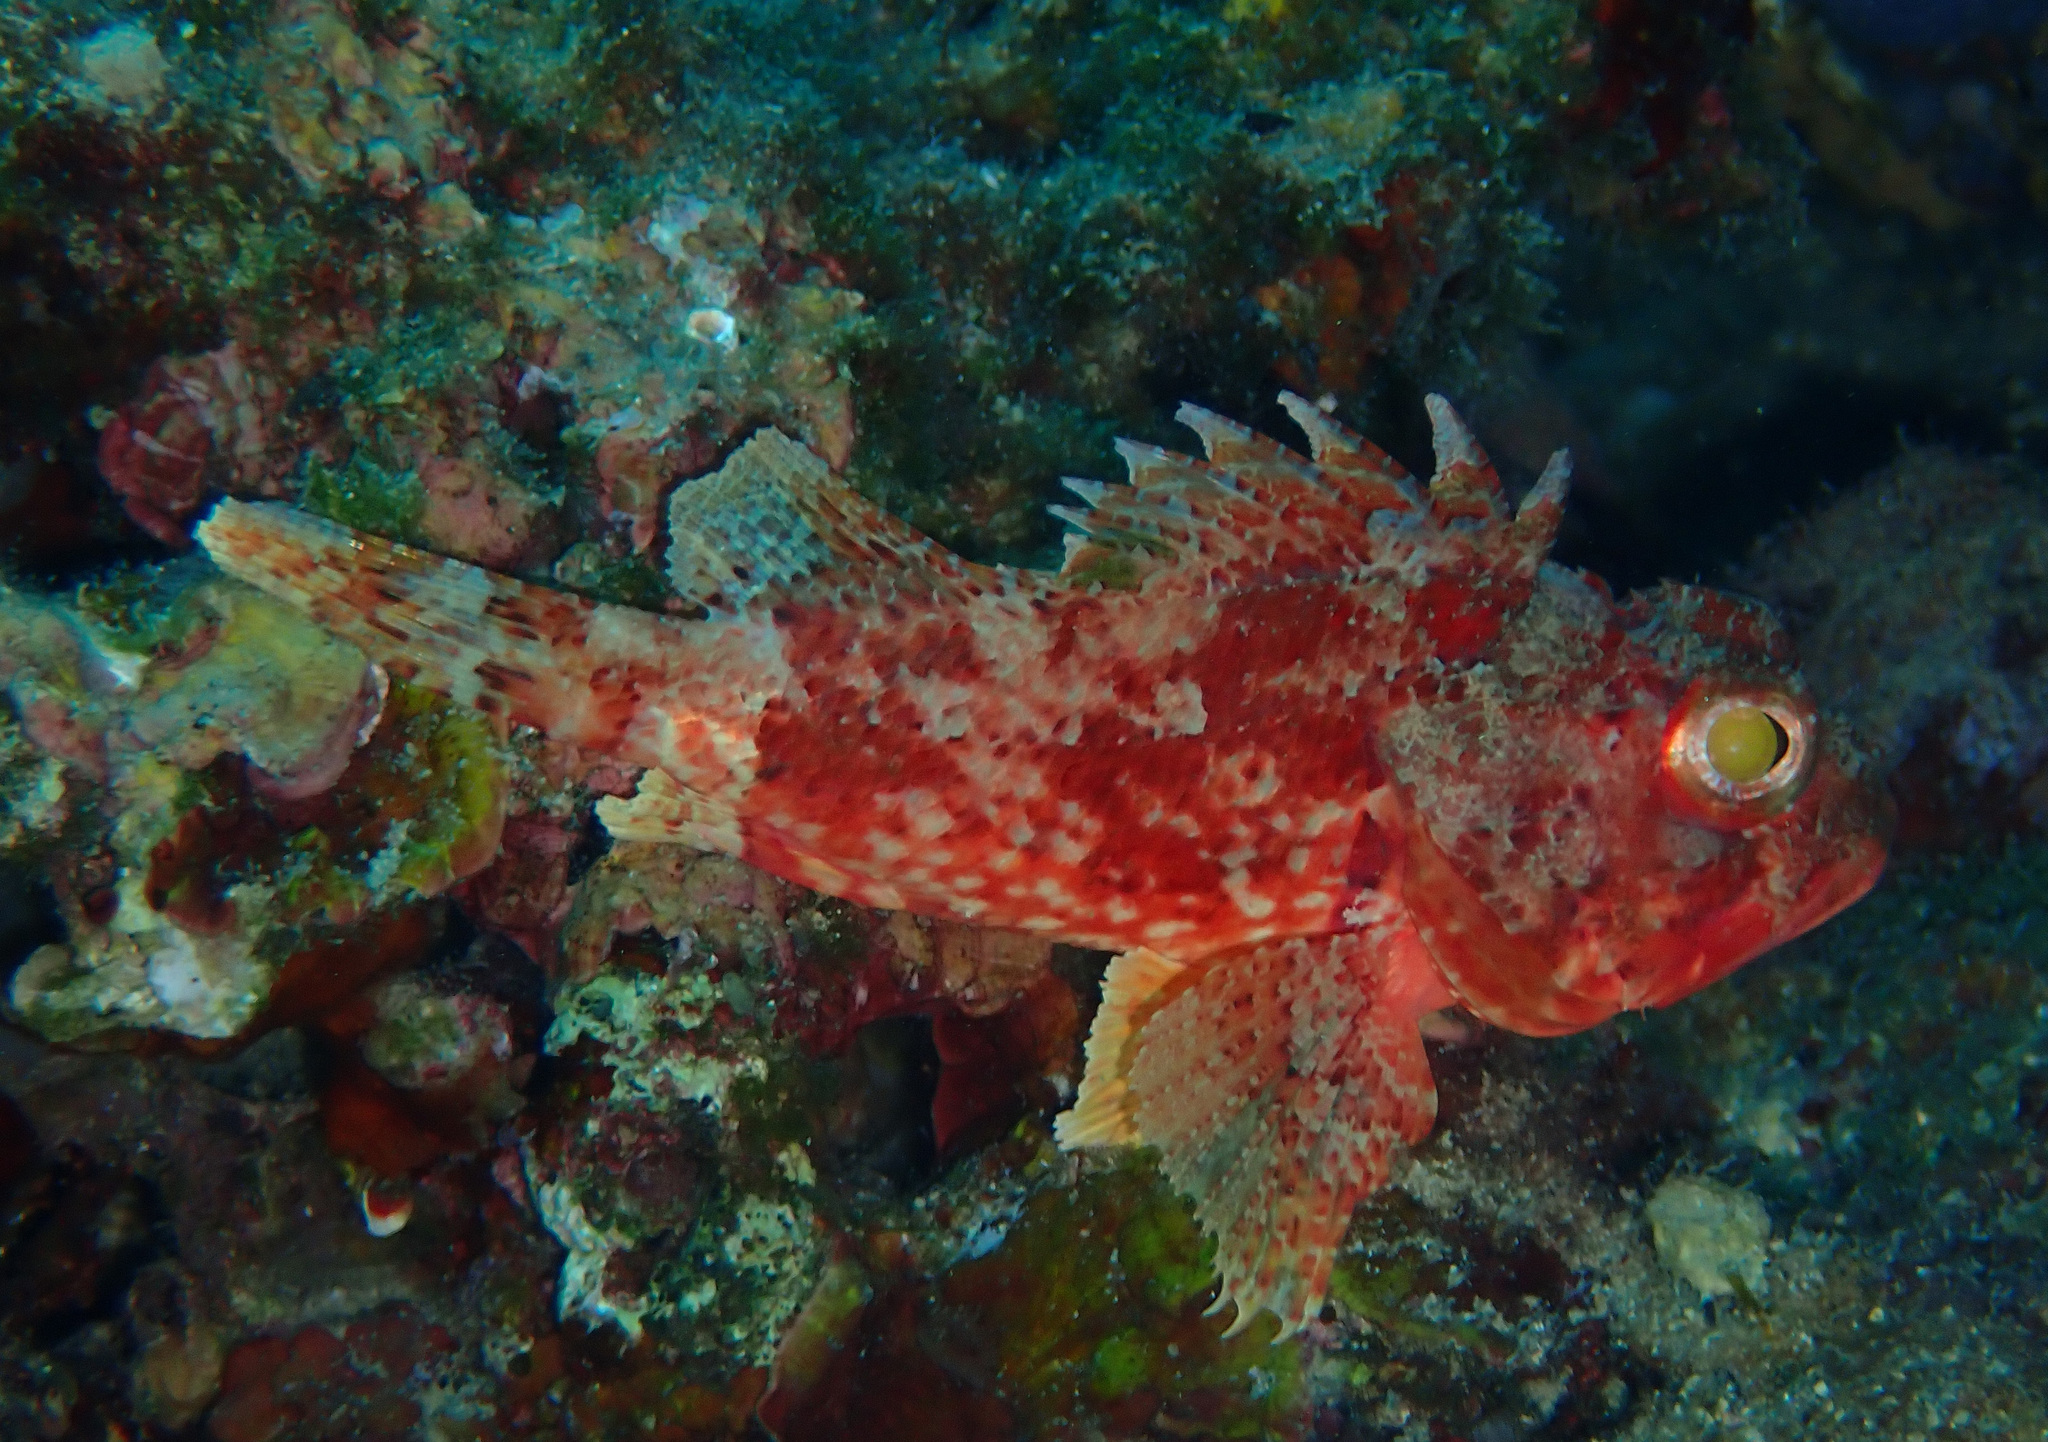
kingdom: Animalia
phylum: Chordata
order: Scorpaeniformes
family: Scorpaenidae
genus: Scorpaena
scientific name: Scorpaena notata
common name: Small red scorpionfish
